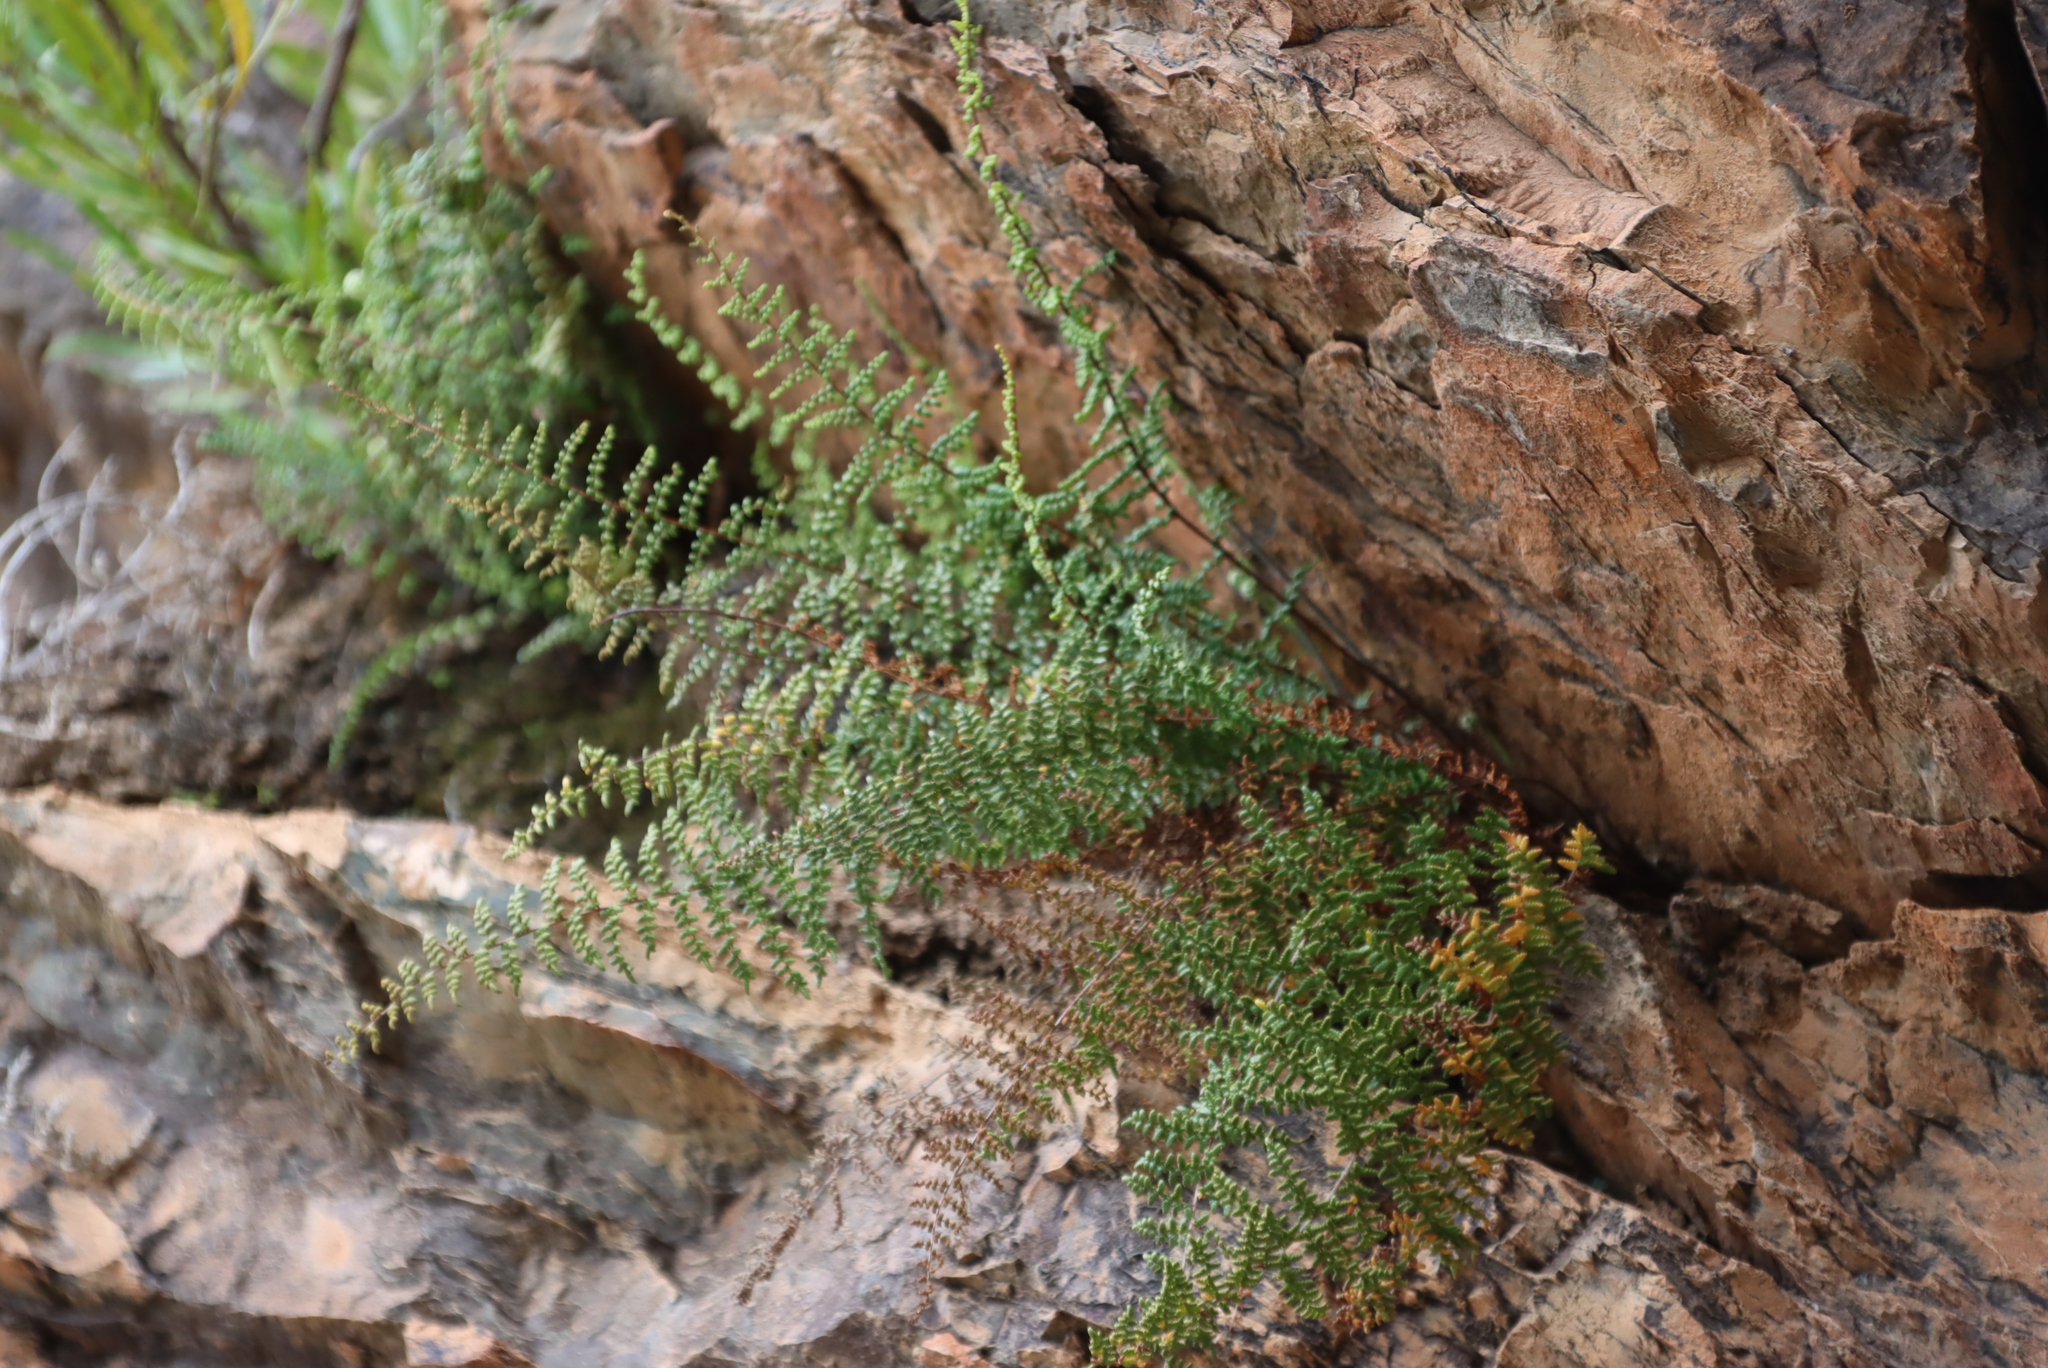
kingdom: Plantae
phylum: Tracheophyta
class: Polypodiopsida
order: Polypodiales
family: Pteridaceae
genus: Cheilanthes
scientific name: Cheilanthes hirta
